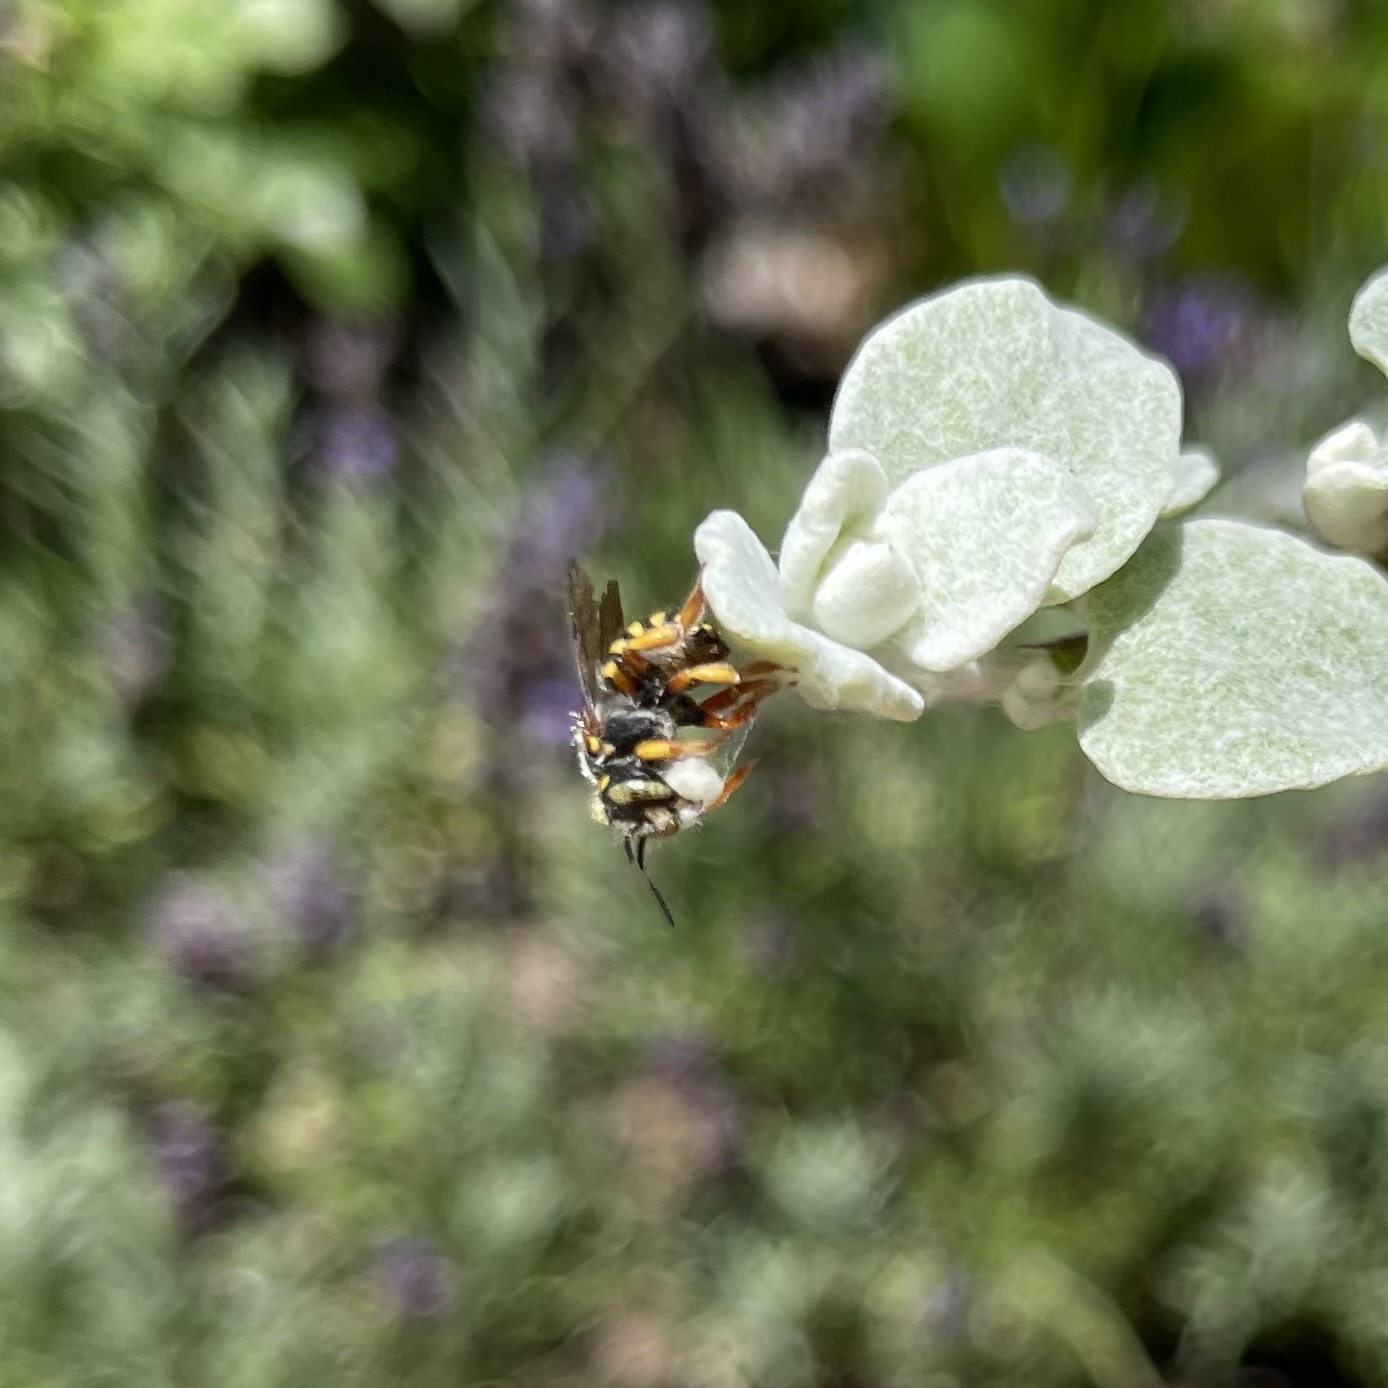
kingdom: Animalia
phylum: Arthropoda
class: Insecta
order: Hymenoptera
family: Megachilidae
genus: Anthidium
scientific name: Anthidium oblongatum
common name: Oblong wool carder bee
